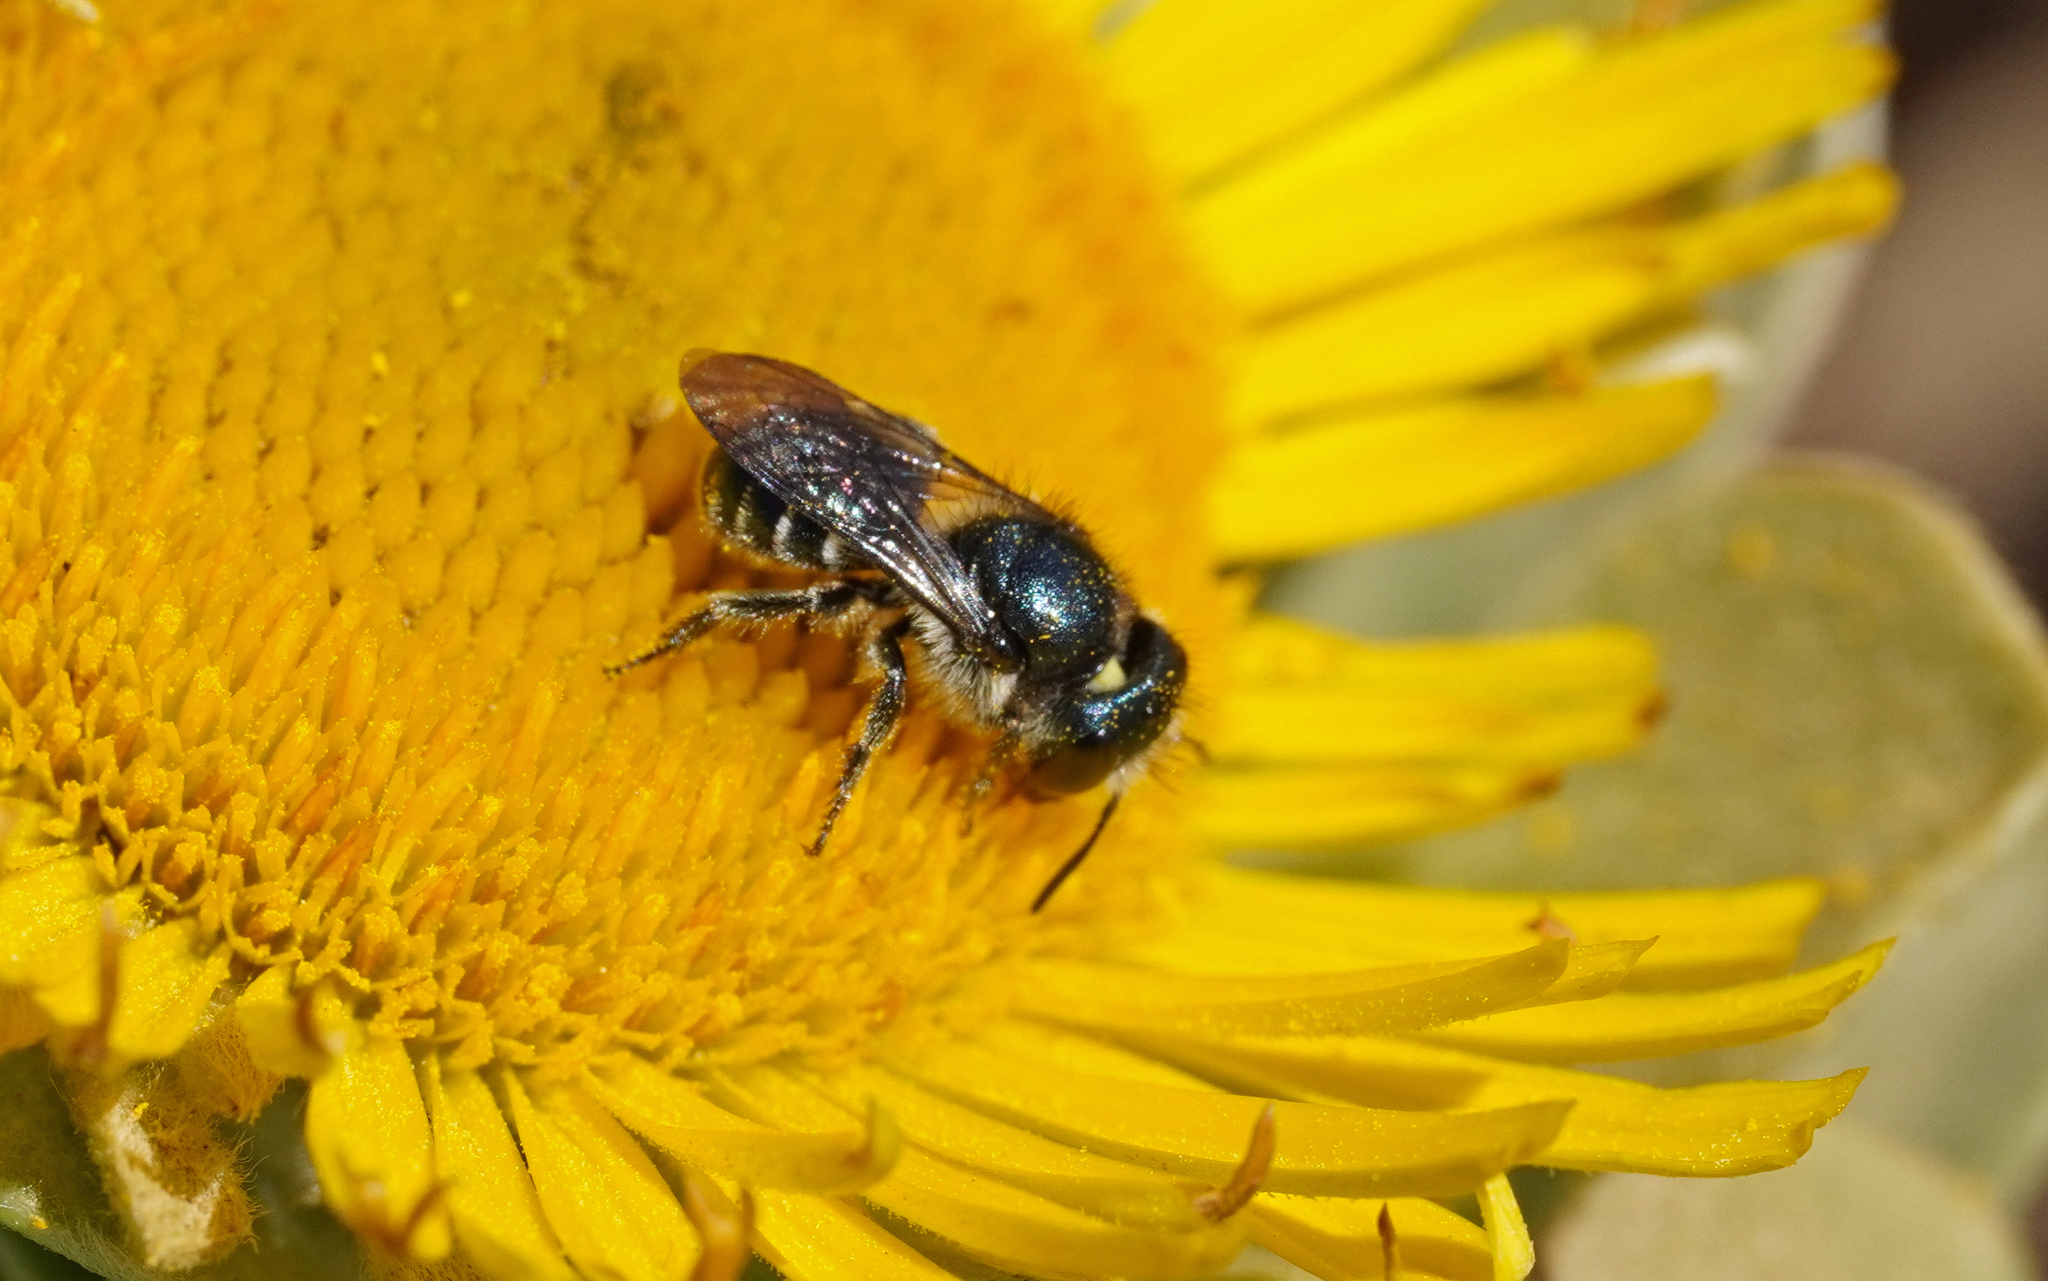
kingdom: Animalia
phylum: Arthropoda
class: Insecta
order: Hymenoptera
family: Megachilidae
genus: Osmia
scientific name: Osmia submicans
